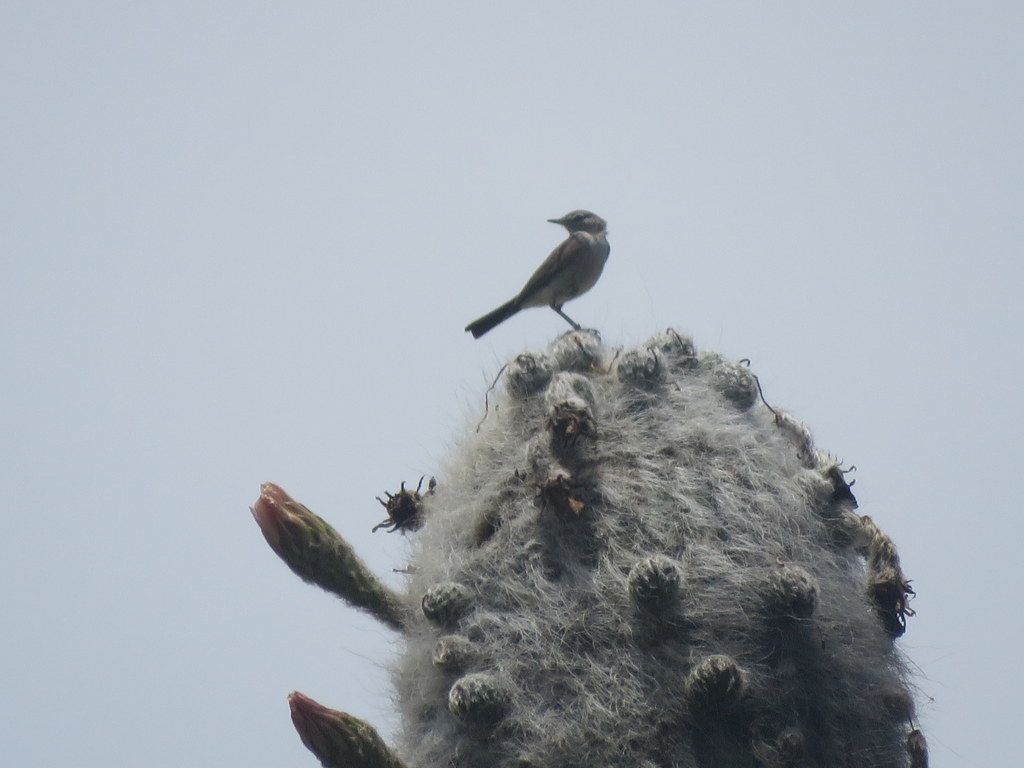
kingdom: Animalia
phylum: Chordata
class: Aves
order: Passeriformes
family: Tyrannidae
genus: Muscisaxicola
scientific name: Muscisaxicola maculirostris
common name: Spot-billed ground tyrant
